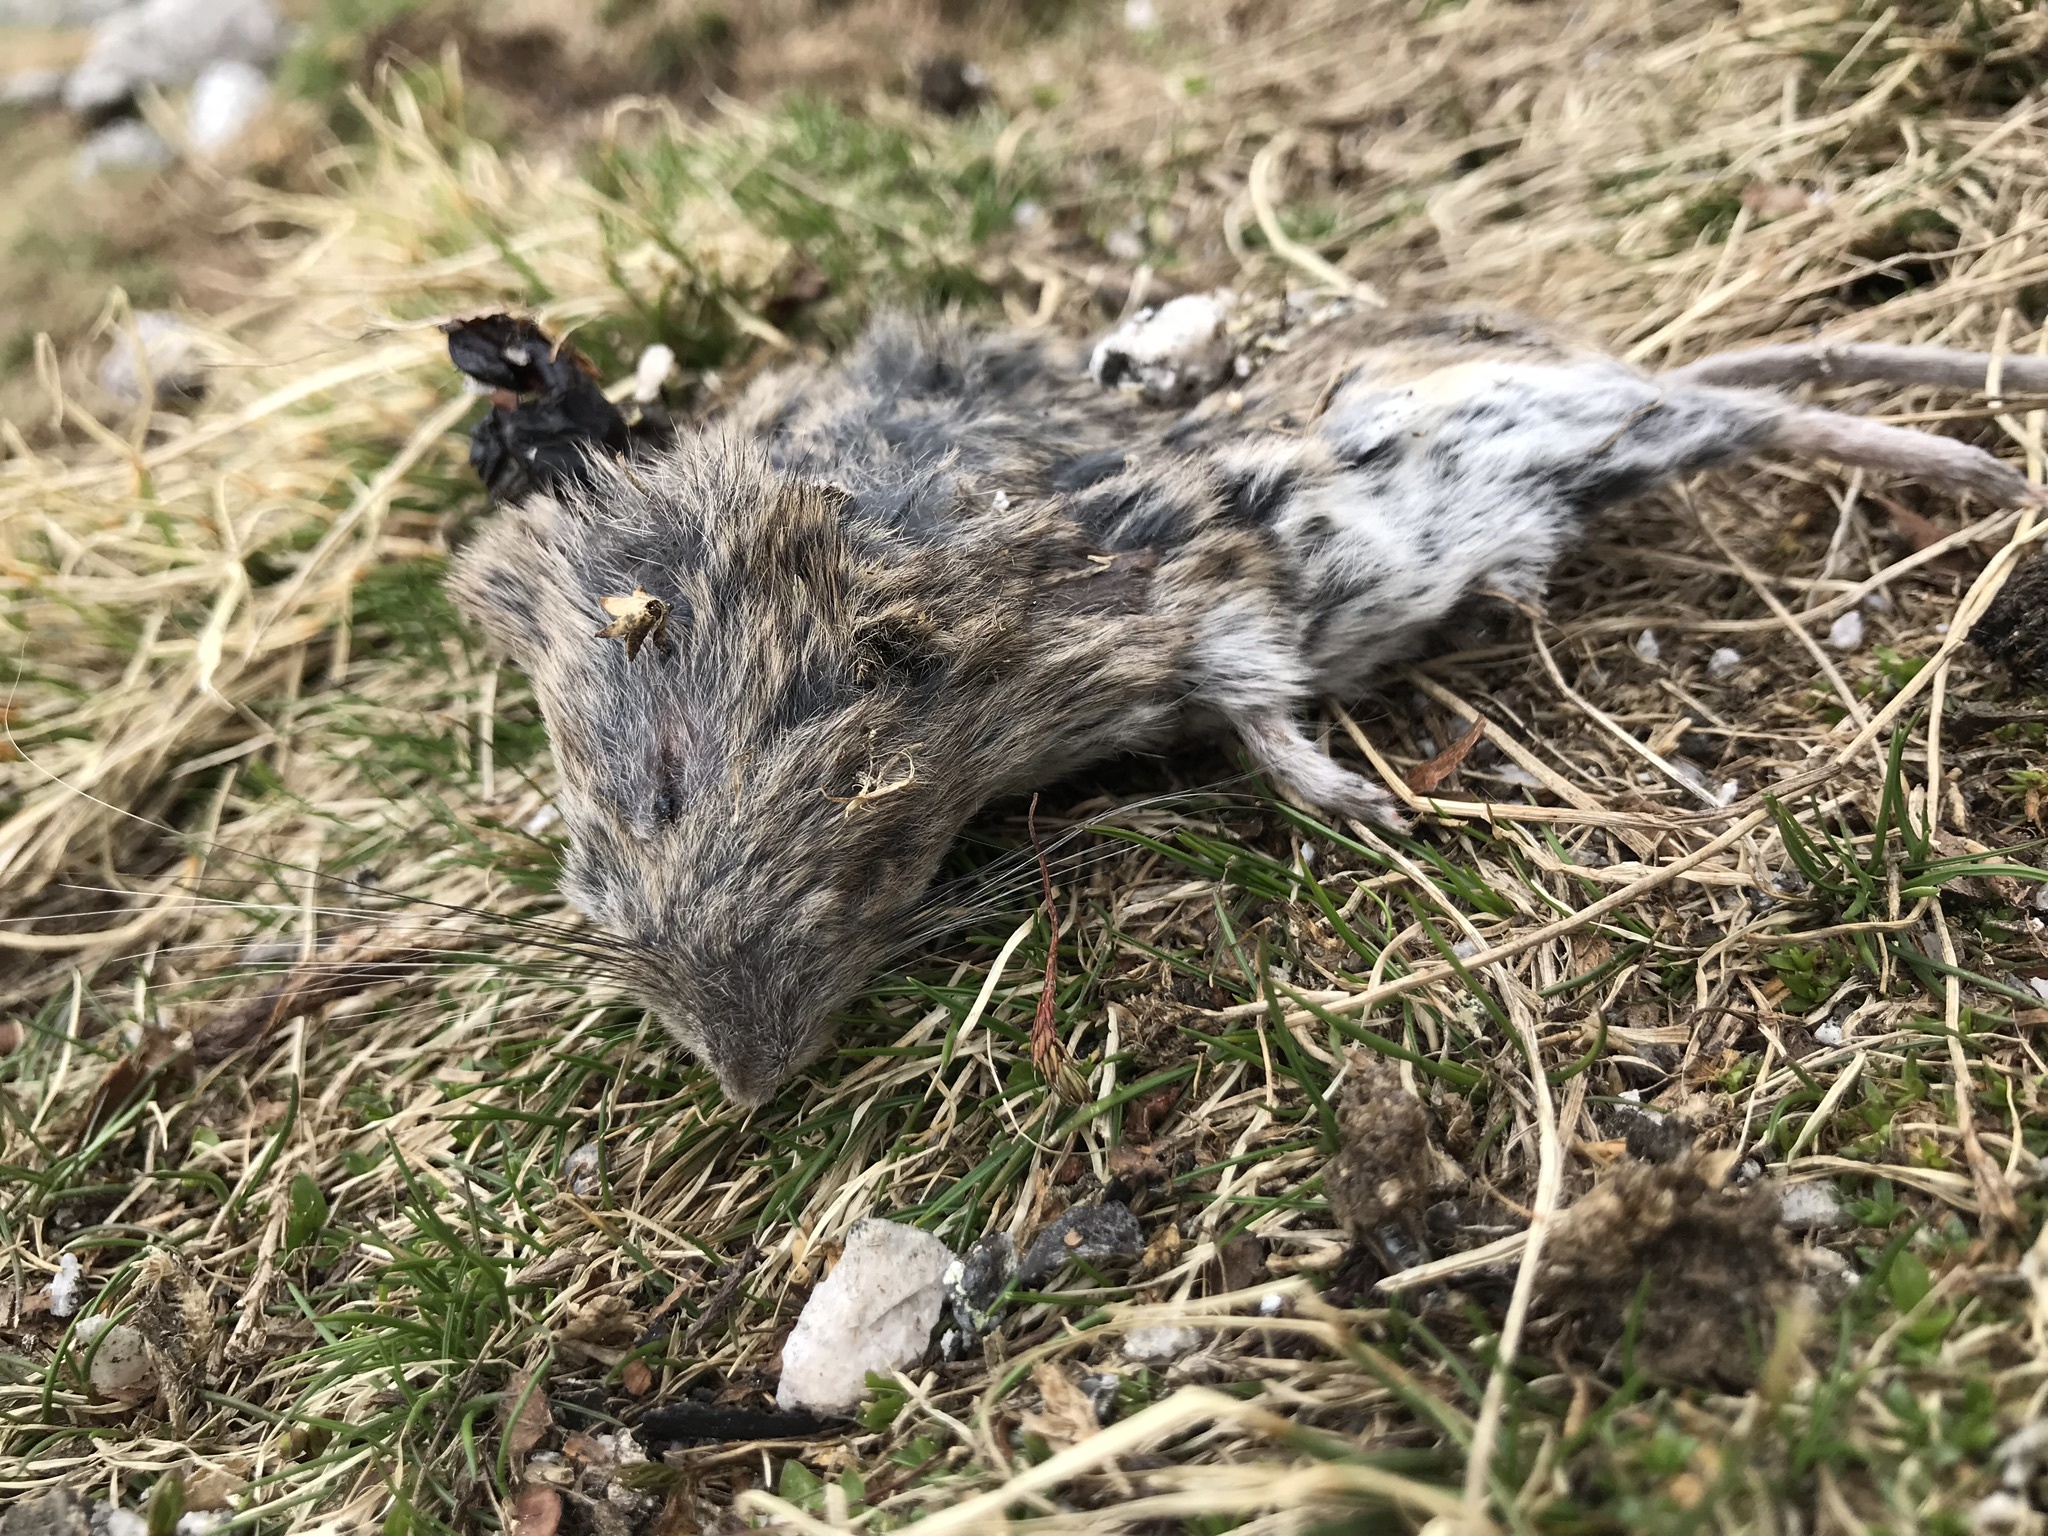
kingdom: Animalia
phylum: Chordata
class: Mammalia
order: Rodentia
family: Cricetidae
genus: Chionomys
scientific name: Chionomys nivalis
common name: European snow vole
